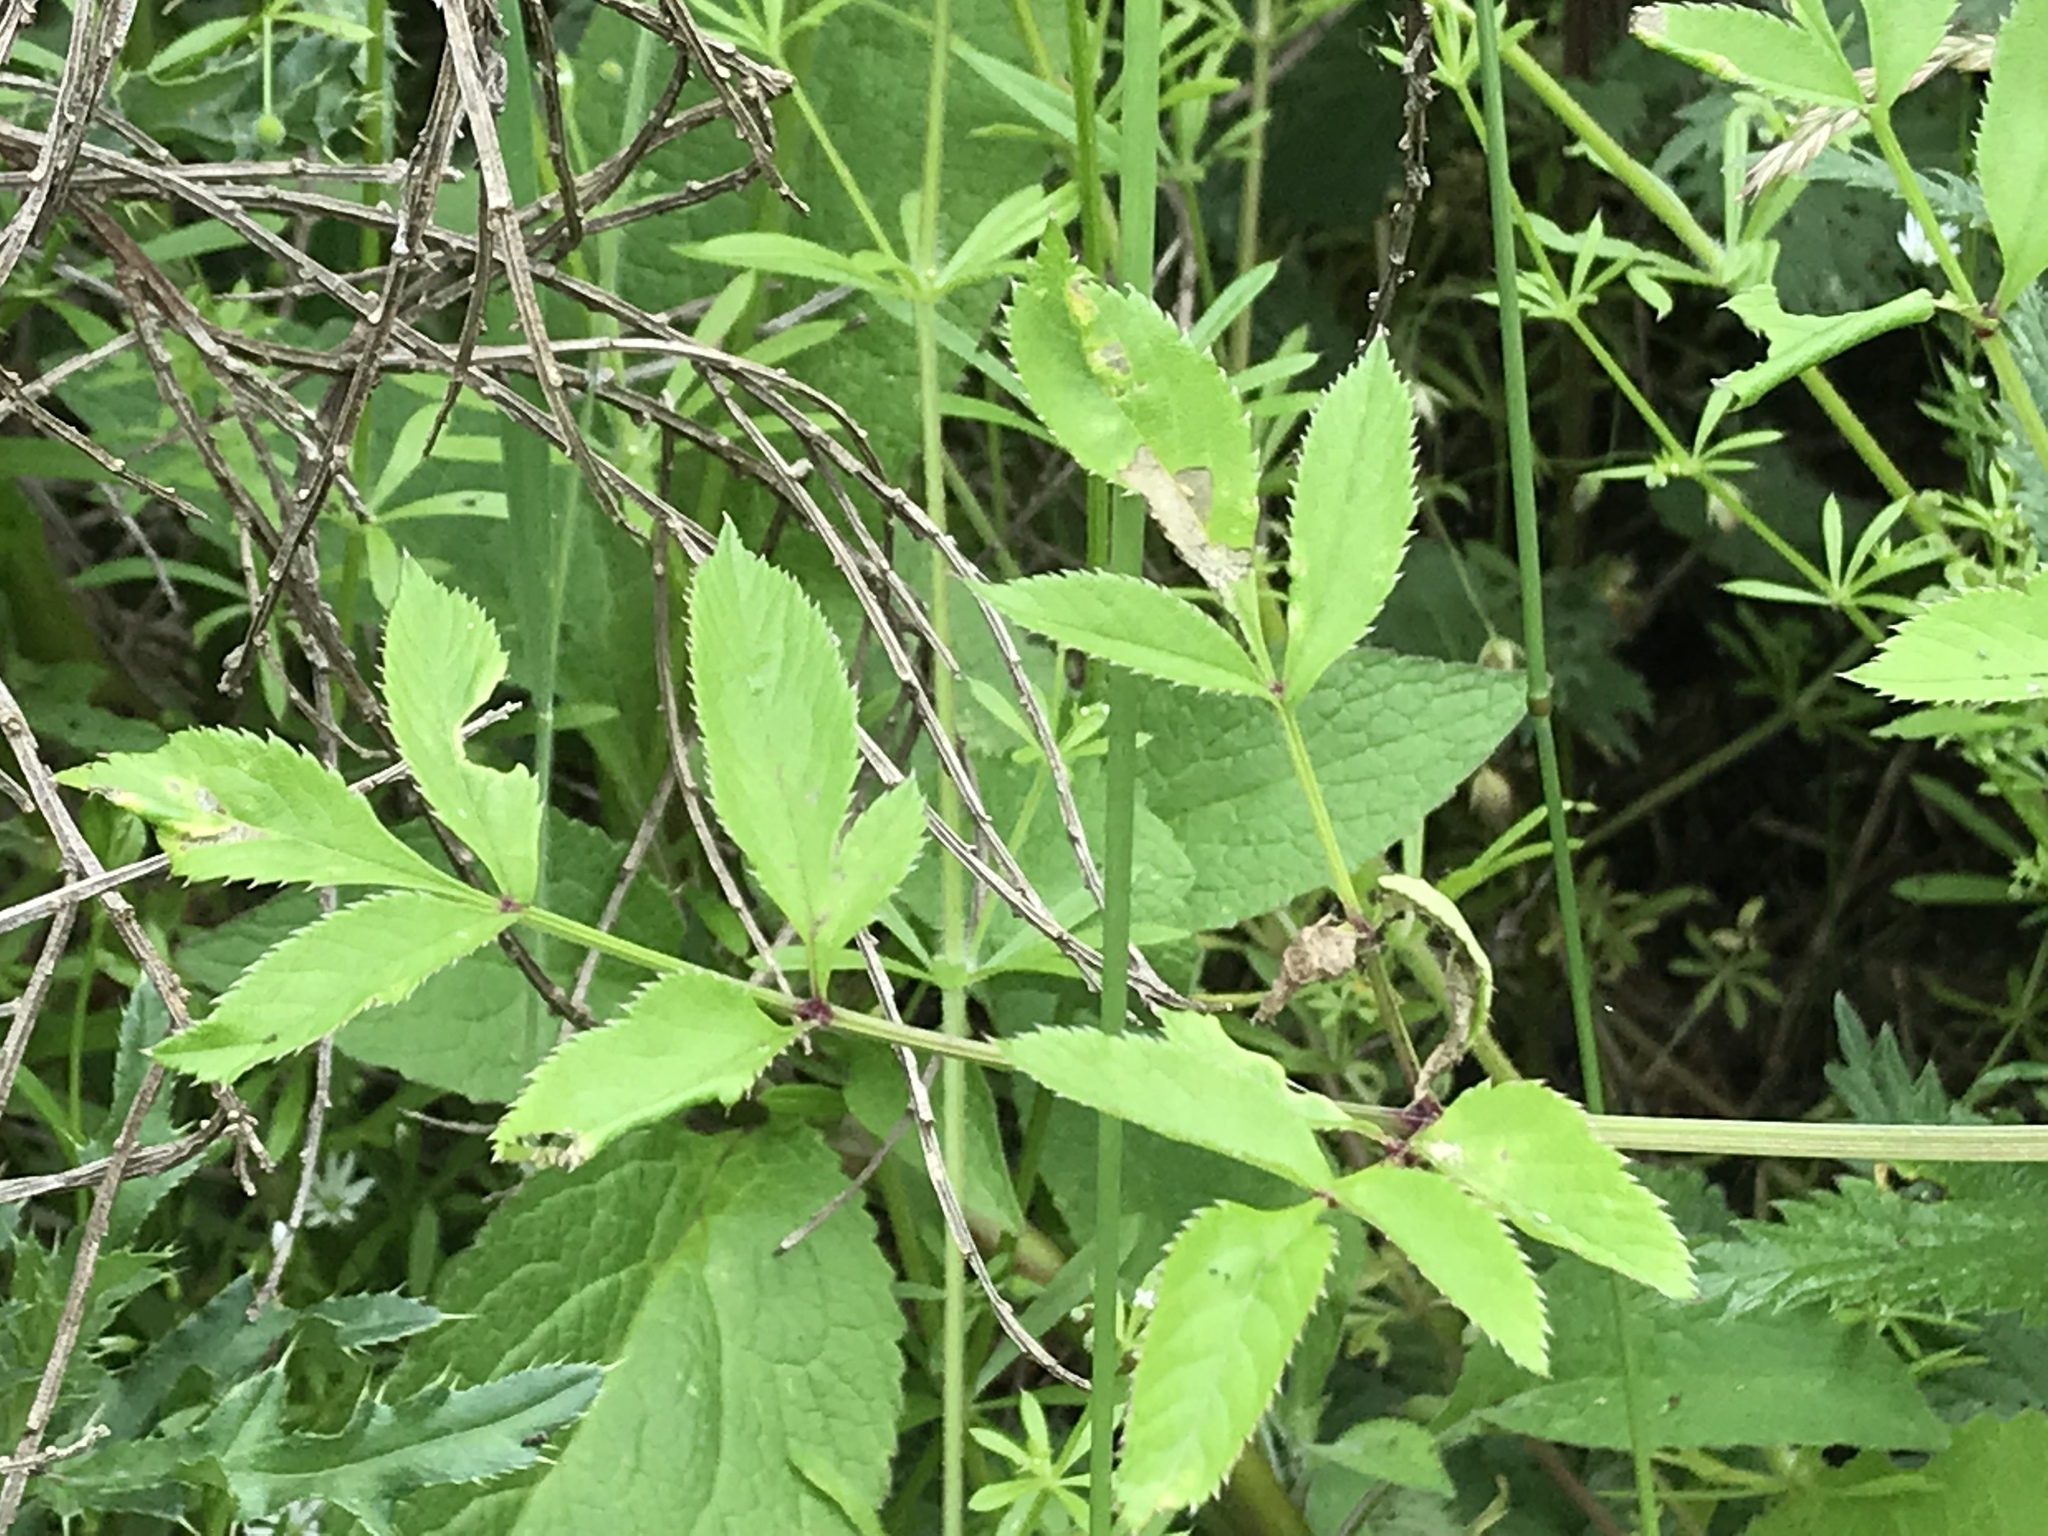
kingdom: Plantae
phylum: Tracheophyta
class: Magnoliopsida
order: Apiales
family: Apiaceae
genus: Angelica
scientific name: Angelica sylvestris
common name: Wild angelica
